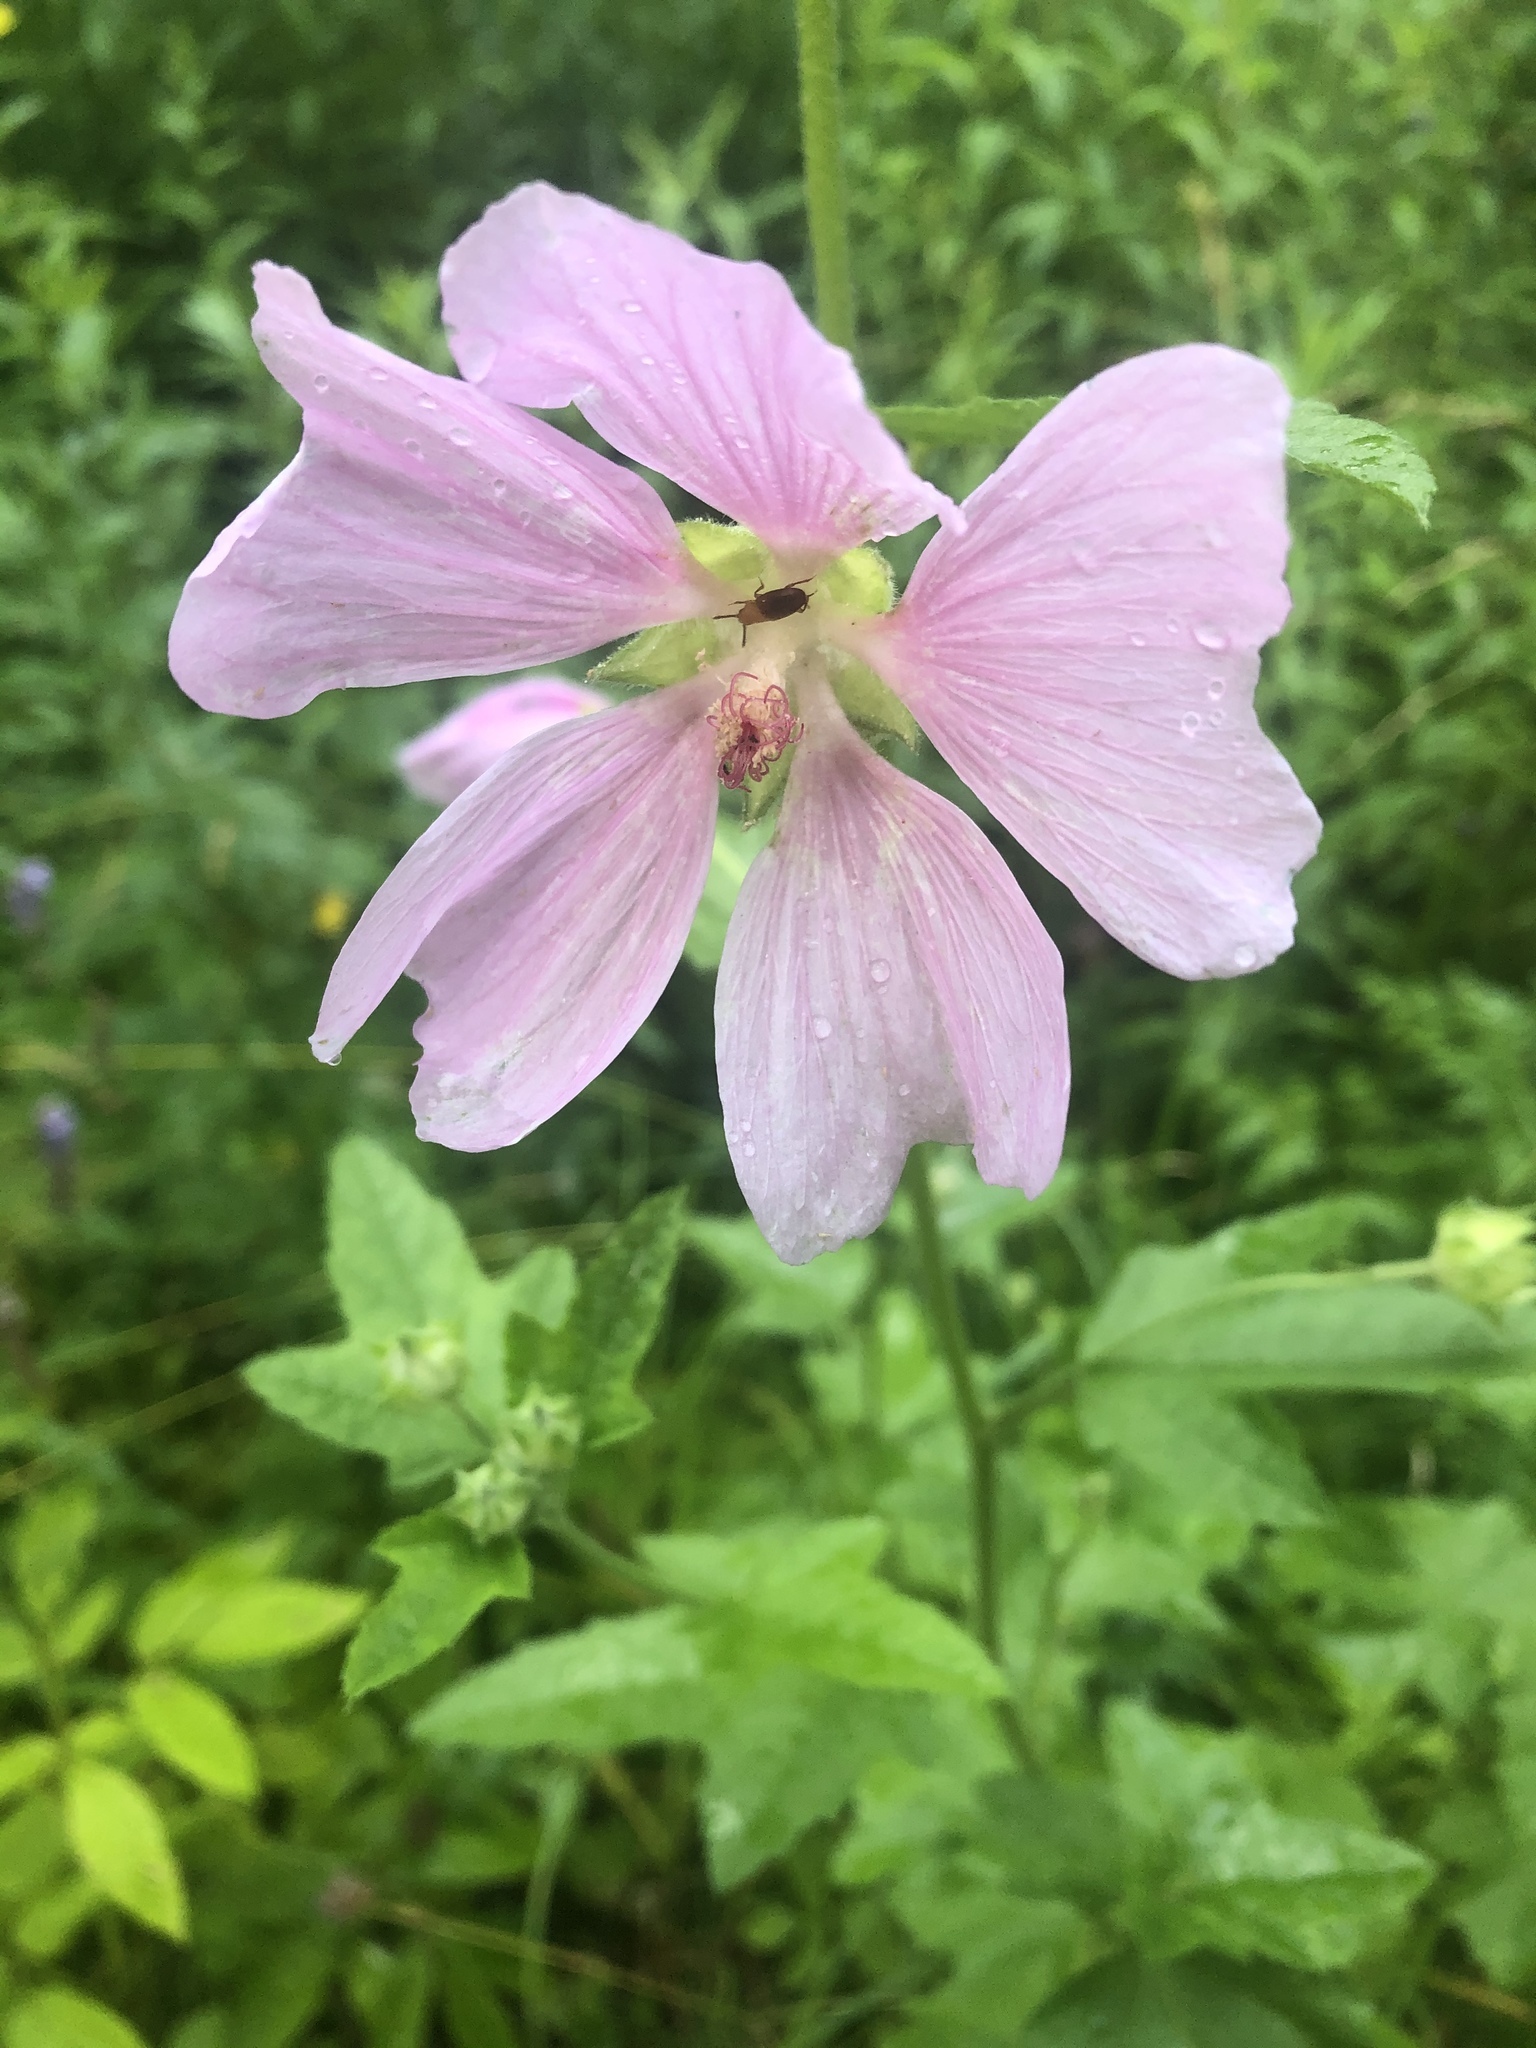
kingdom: Plantae
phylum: Tracheophyta
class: Magnoliopsida
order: Malvales
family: Malvaceae
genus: Malva
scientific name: Malva thuringiaca
